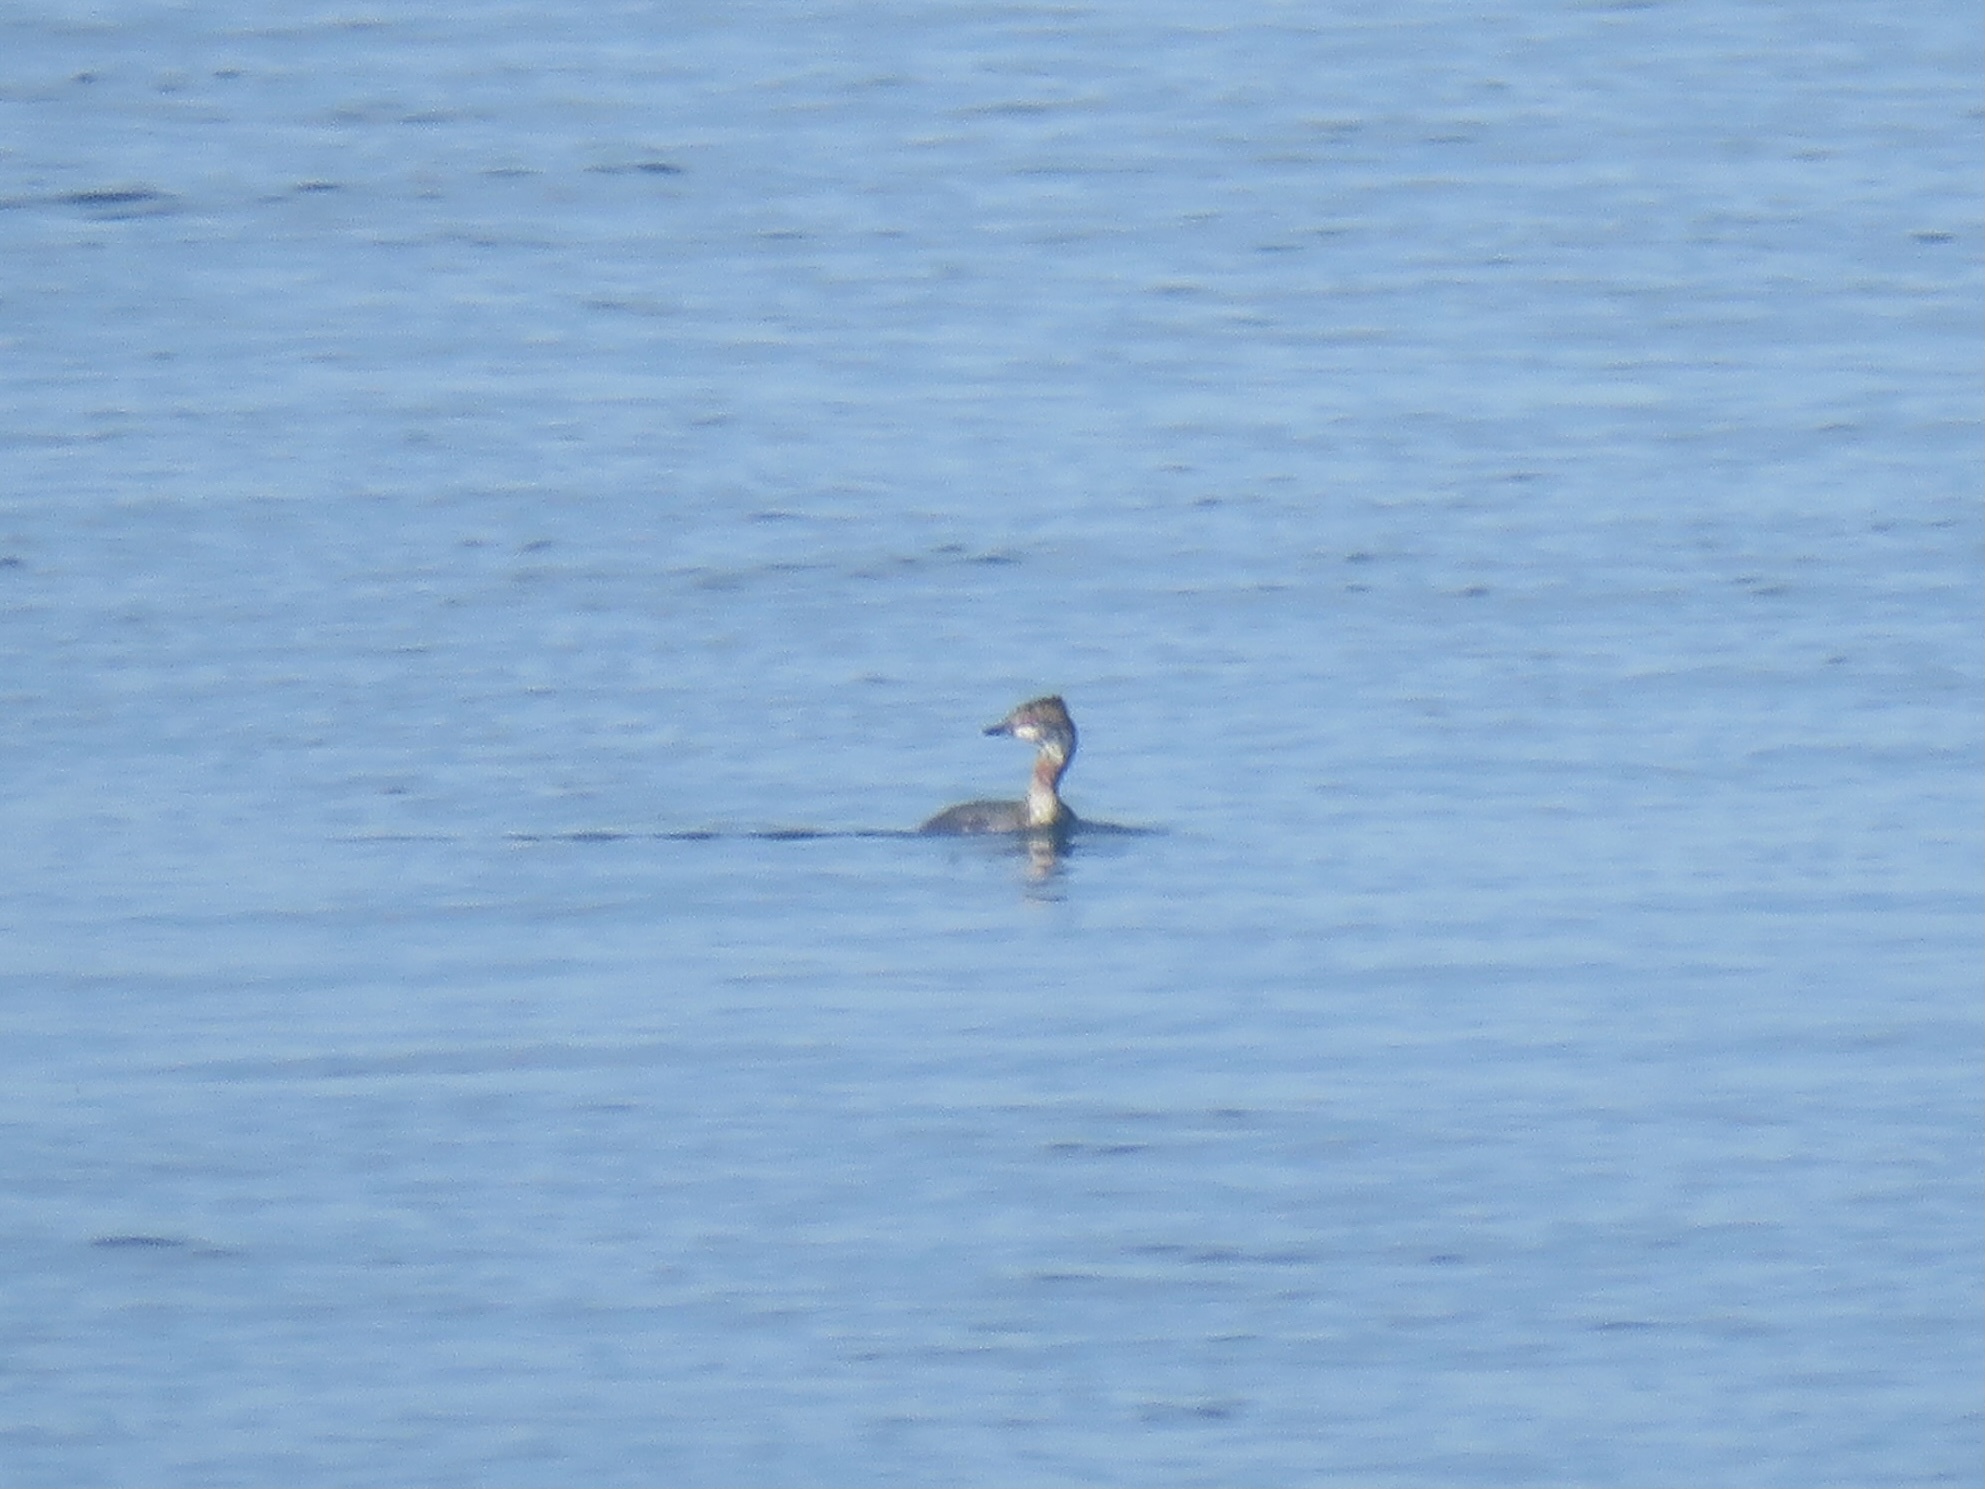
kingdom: Animalia
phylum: Chordata
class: Aves
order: Podicipediformes
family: Podicipedidae
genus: Podiceps
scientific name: Podiceps auritus
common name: Horned grebe
